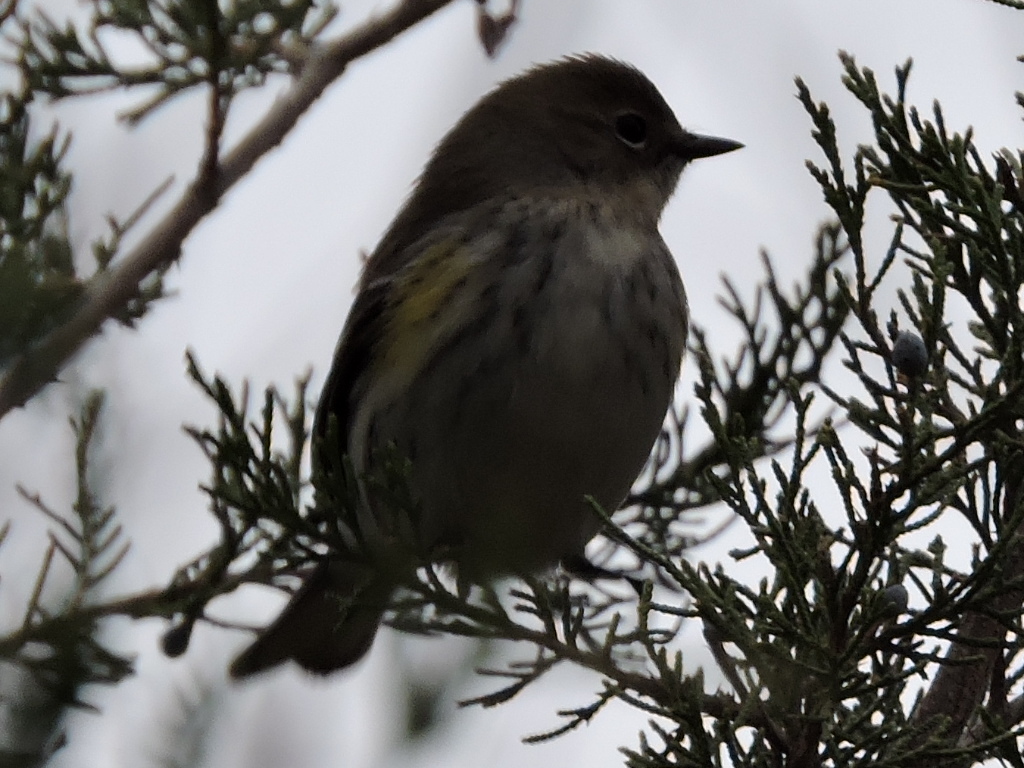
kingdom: Animalia
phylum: Chordata
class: Aves
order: Passeriformes
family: Parulidae
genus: Setophaga
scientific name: Setophaga coronata
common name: Myrtle warbler
